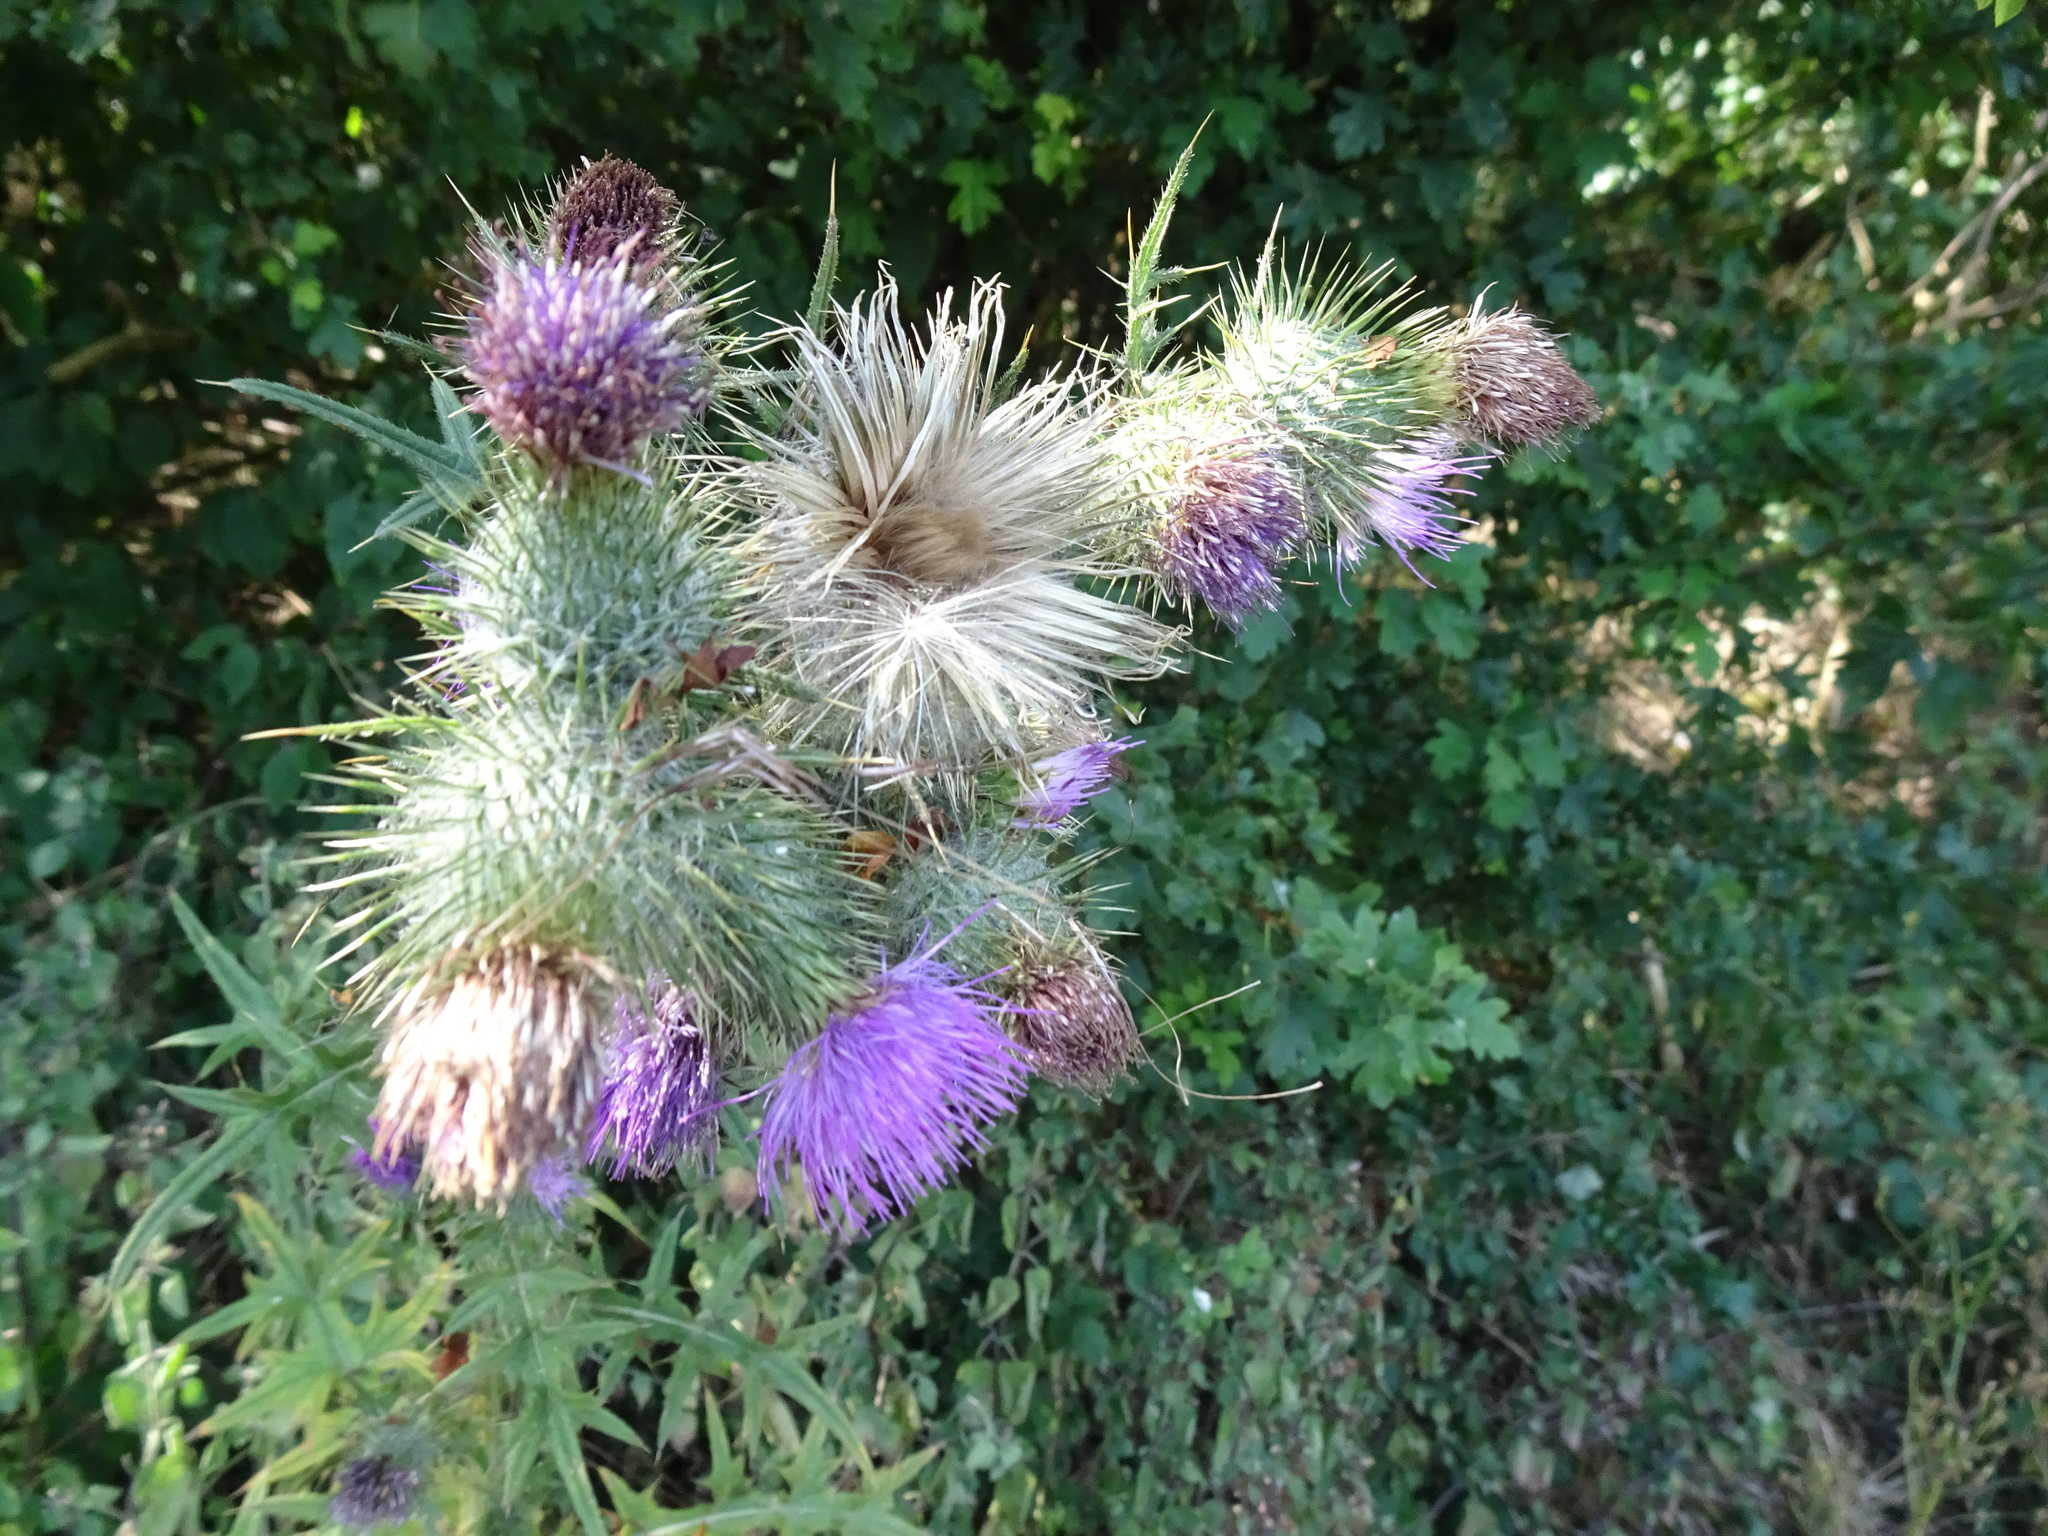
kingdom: Plantae
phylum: Tracheophyta
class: Magnoliopsida
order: Asterales
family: Asteraceae
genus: Cirsium
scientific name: Cirsium vulgare
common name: Bull thistle
